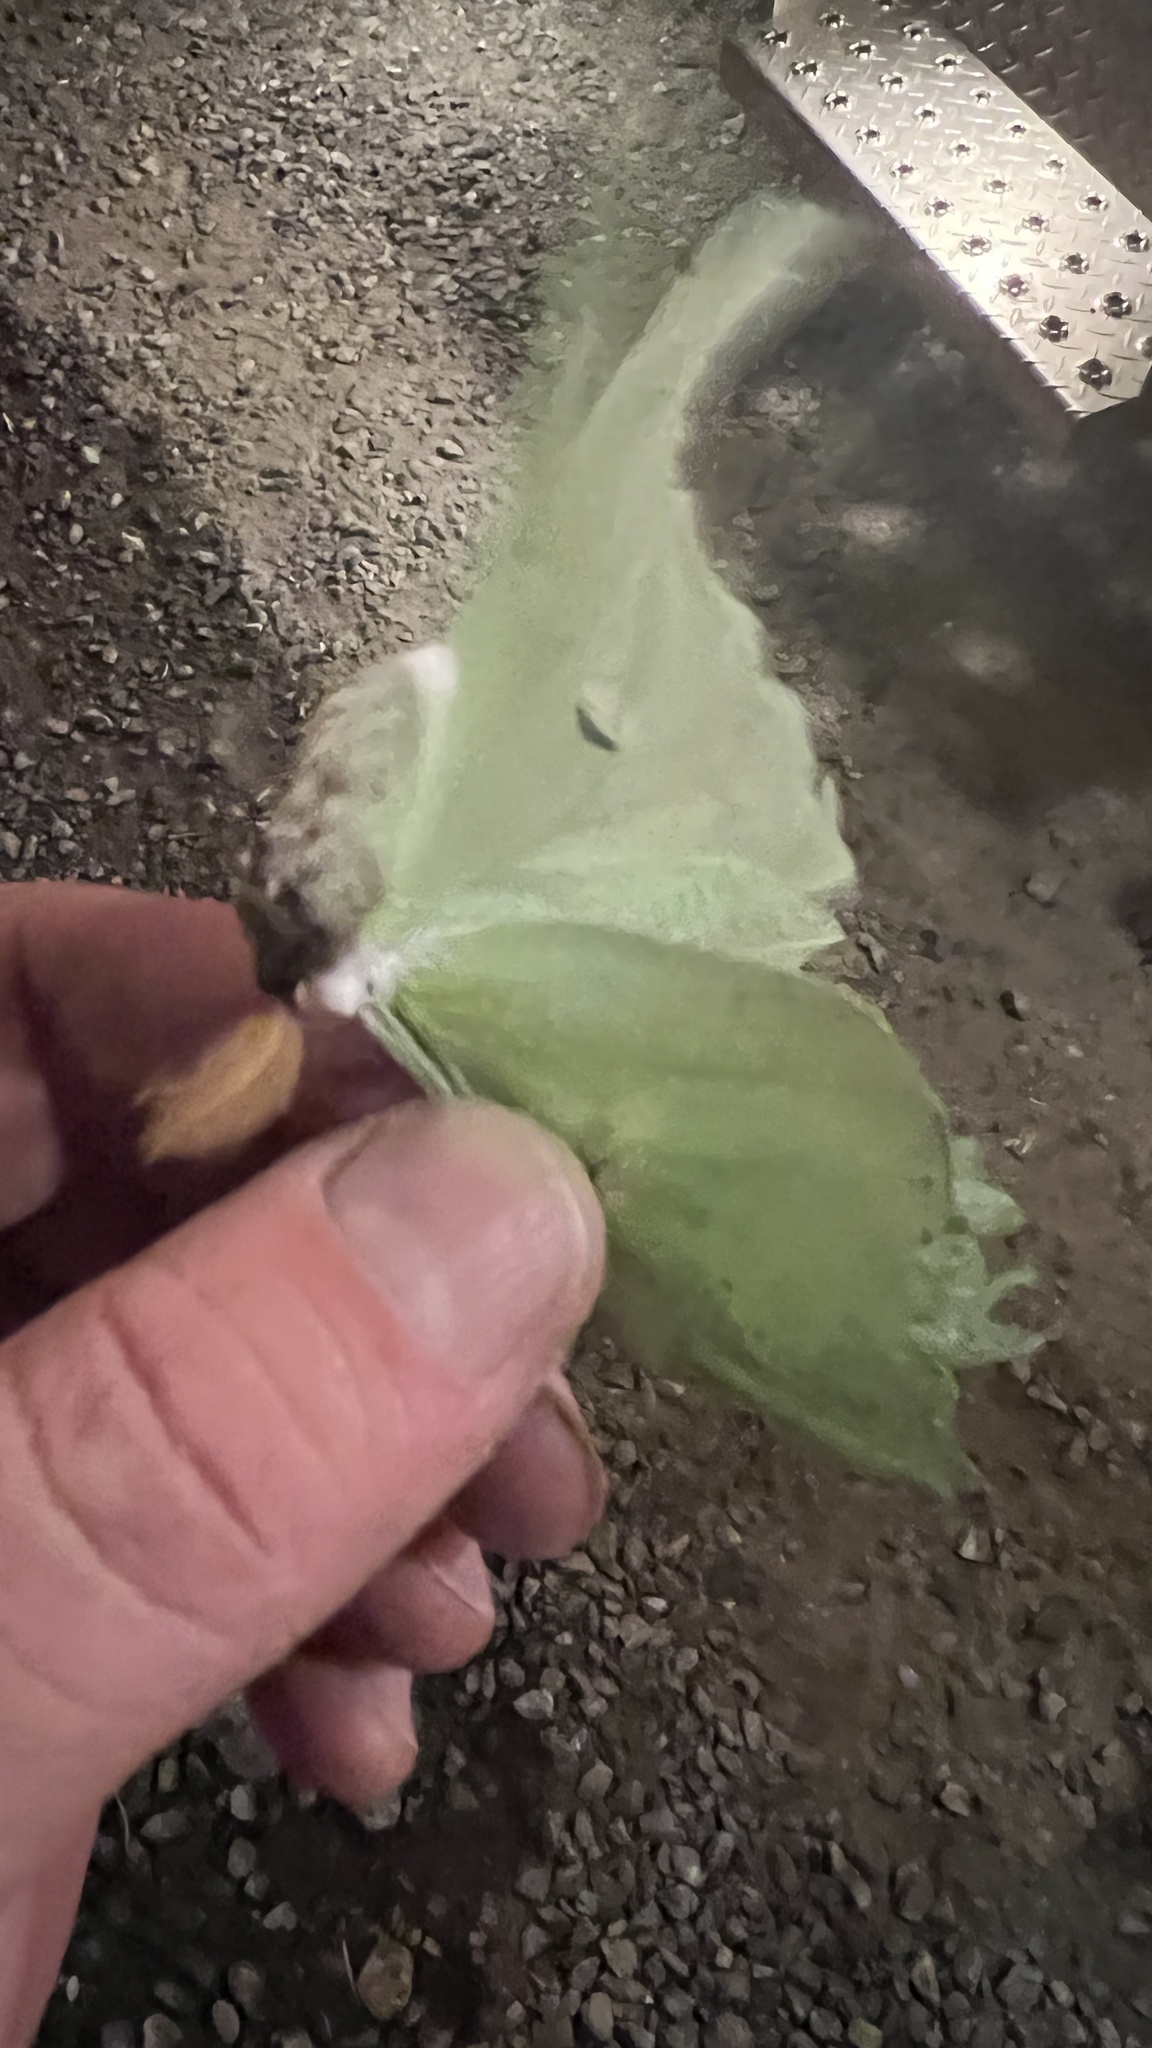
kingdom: Animalia
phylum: Arthropoda
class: Insecta
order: Lepidoptera
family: Saturniidae
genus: Actias
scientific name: Actias luna
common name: Luna moth
